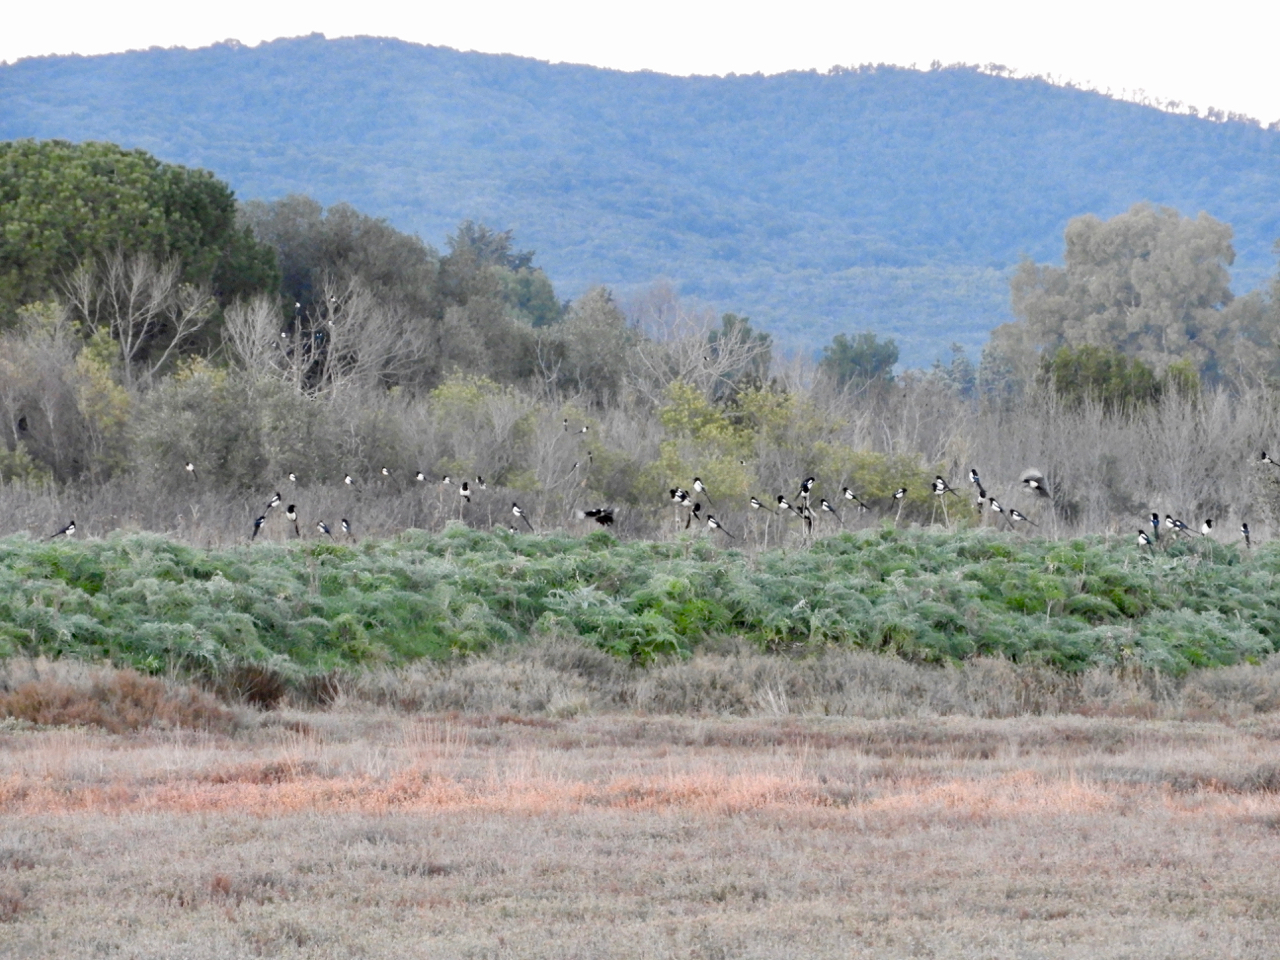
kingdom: Animalia
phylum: Chordata
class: Aves
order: Passeriformes
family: Corvidae
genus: Pica
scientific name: Pica pica
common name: Eurasian magpie
